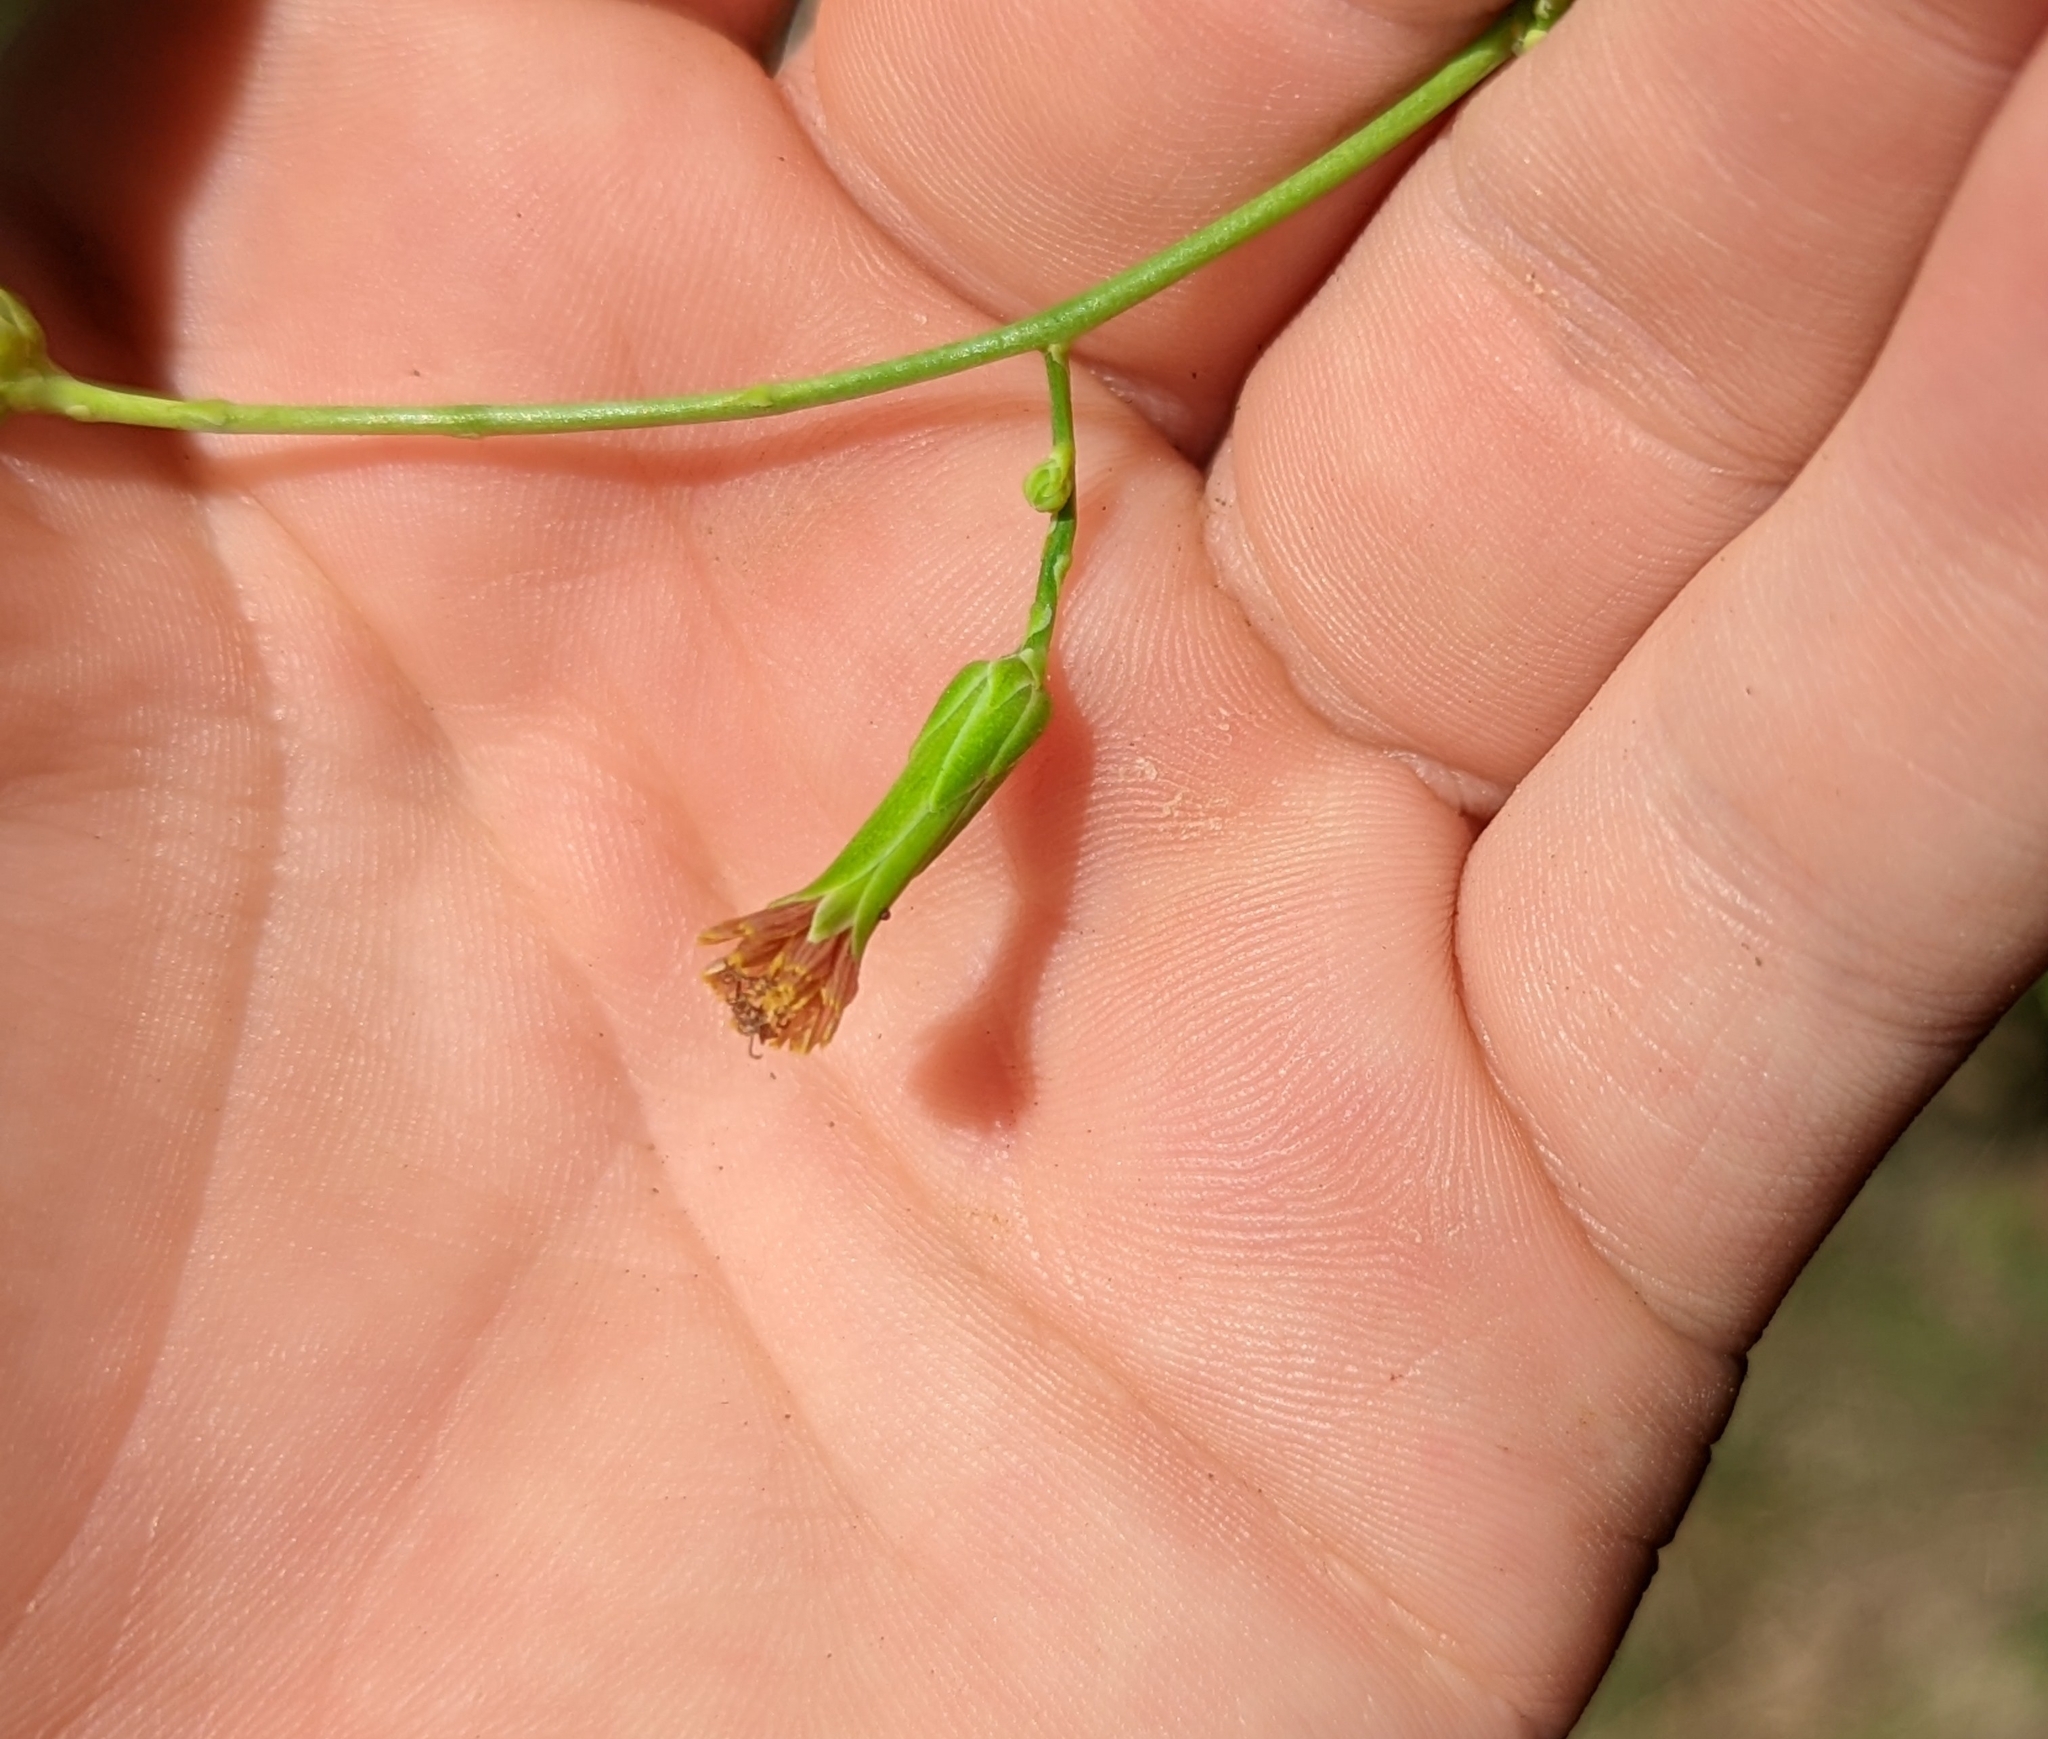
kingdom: Plantae
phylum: Tracheophyta
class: Magnoliopsida
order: Asterales
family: Asteraceae
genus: Lactuca
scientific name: Lactuca canadensis
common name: Canada lettuce
